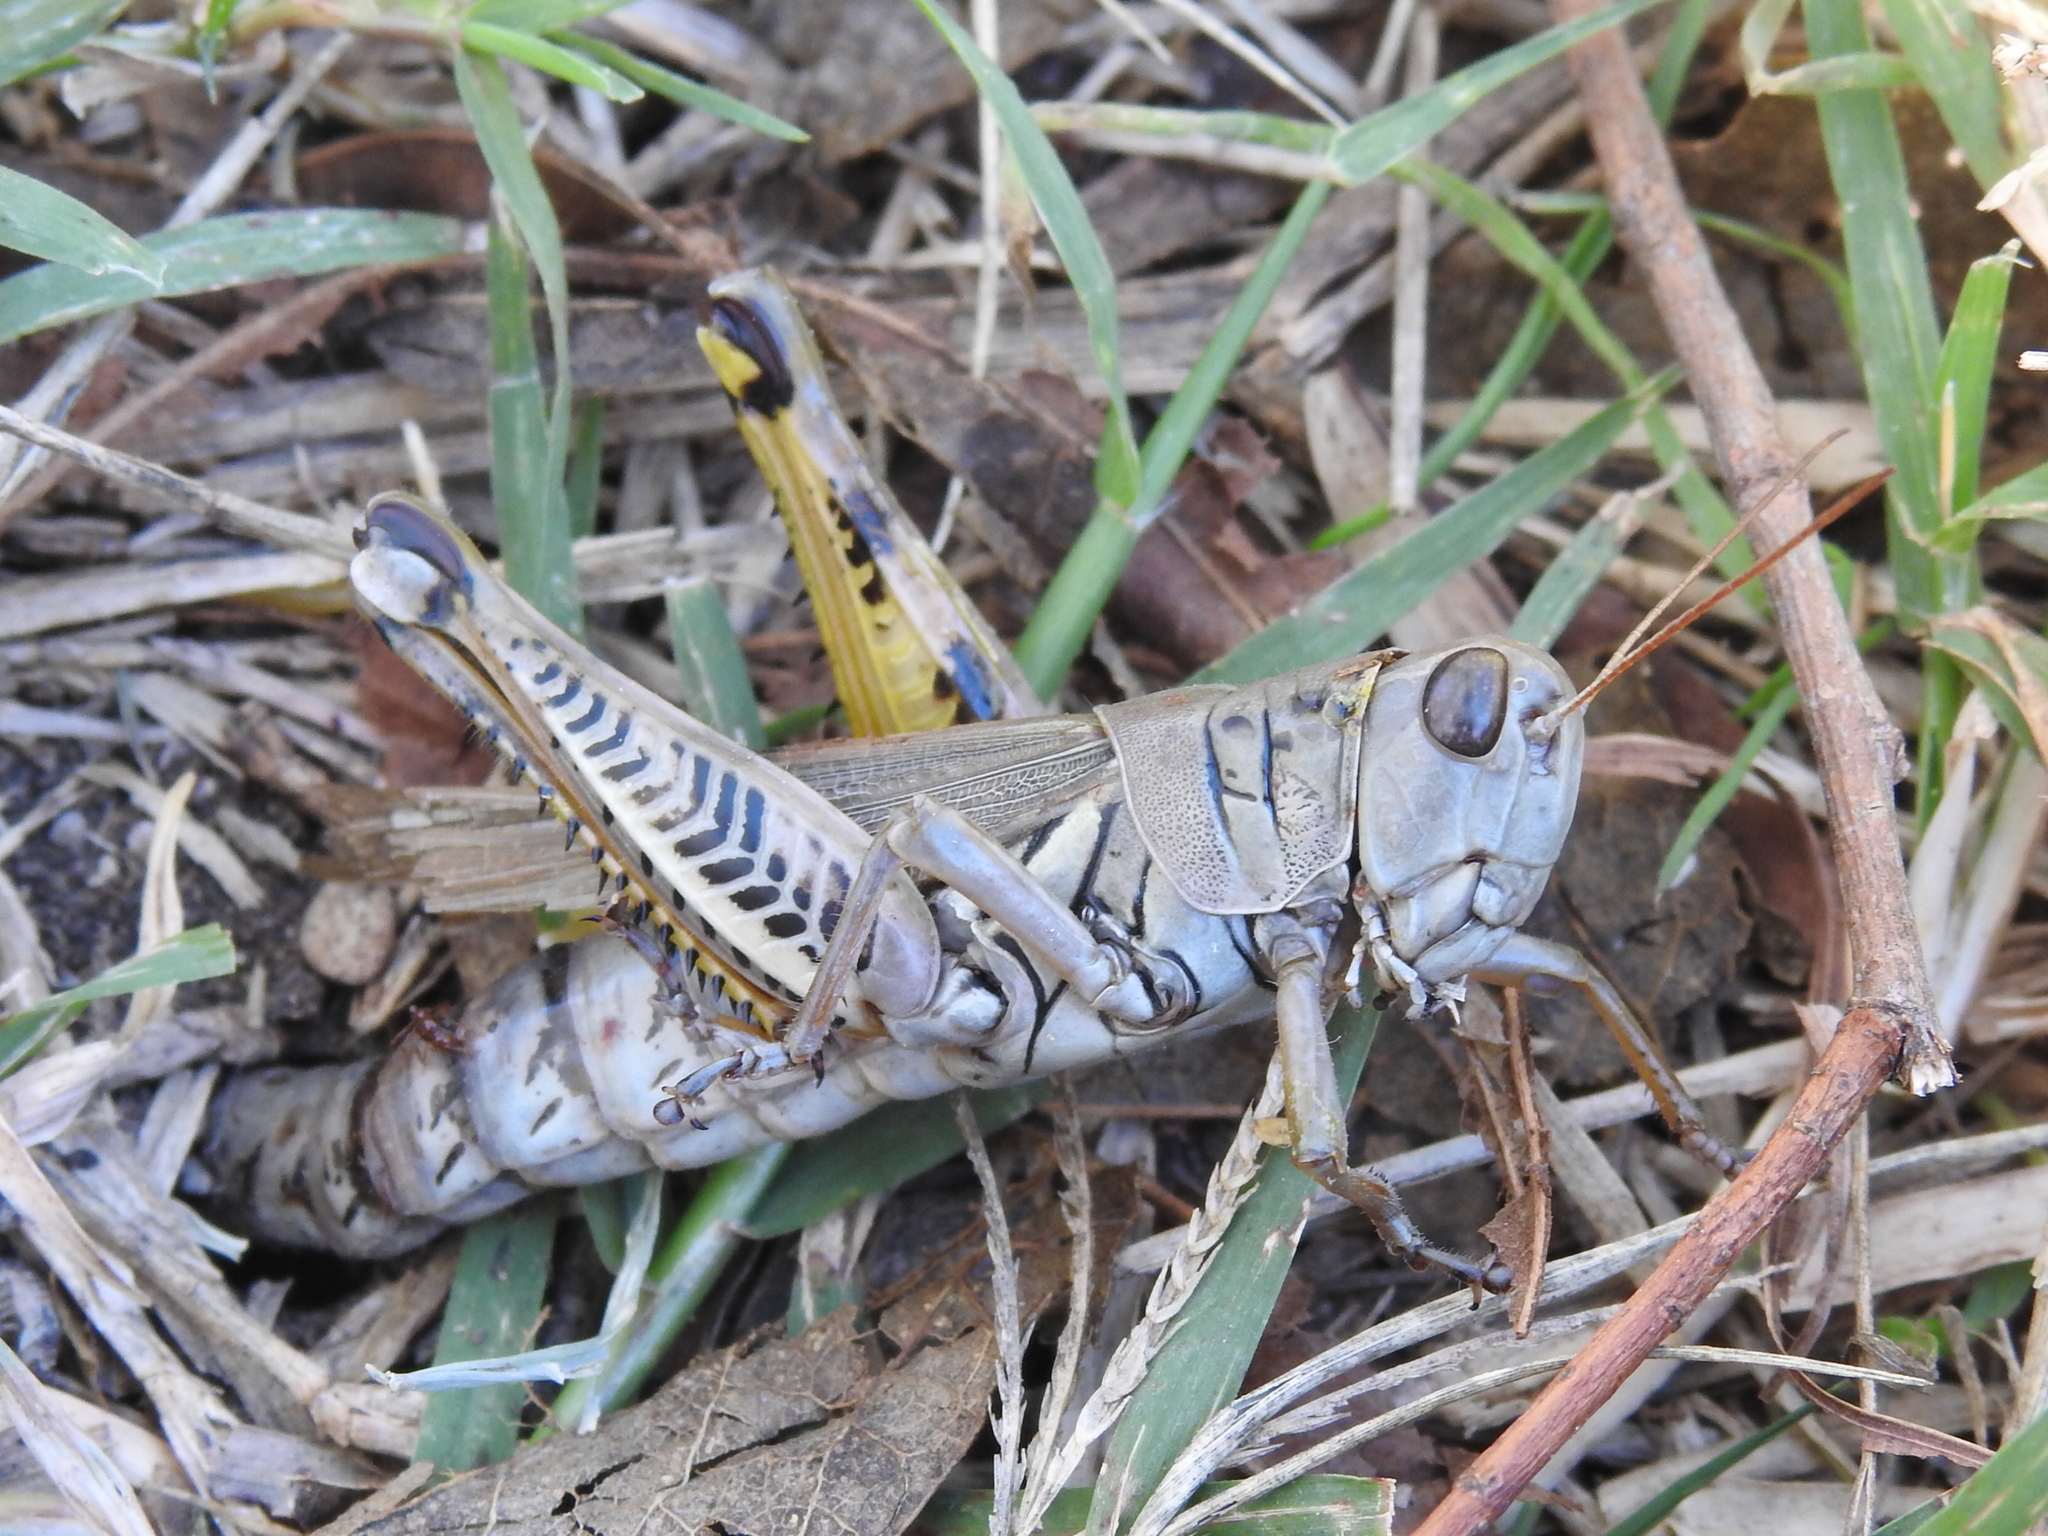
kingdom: Animalia
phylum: Arthropoda
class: Insecta
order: Orthoptera
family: Acrididae
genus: Melanoplus
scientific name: Melanoplus differentialis
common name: Differential grasshopper
